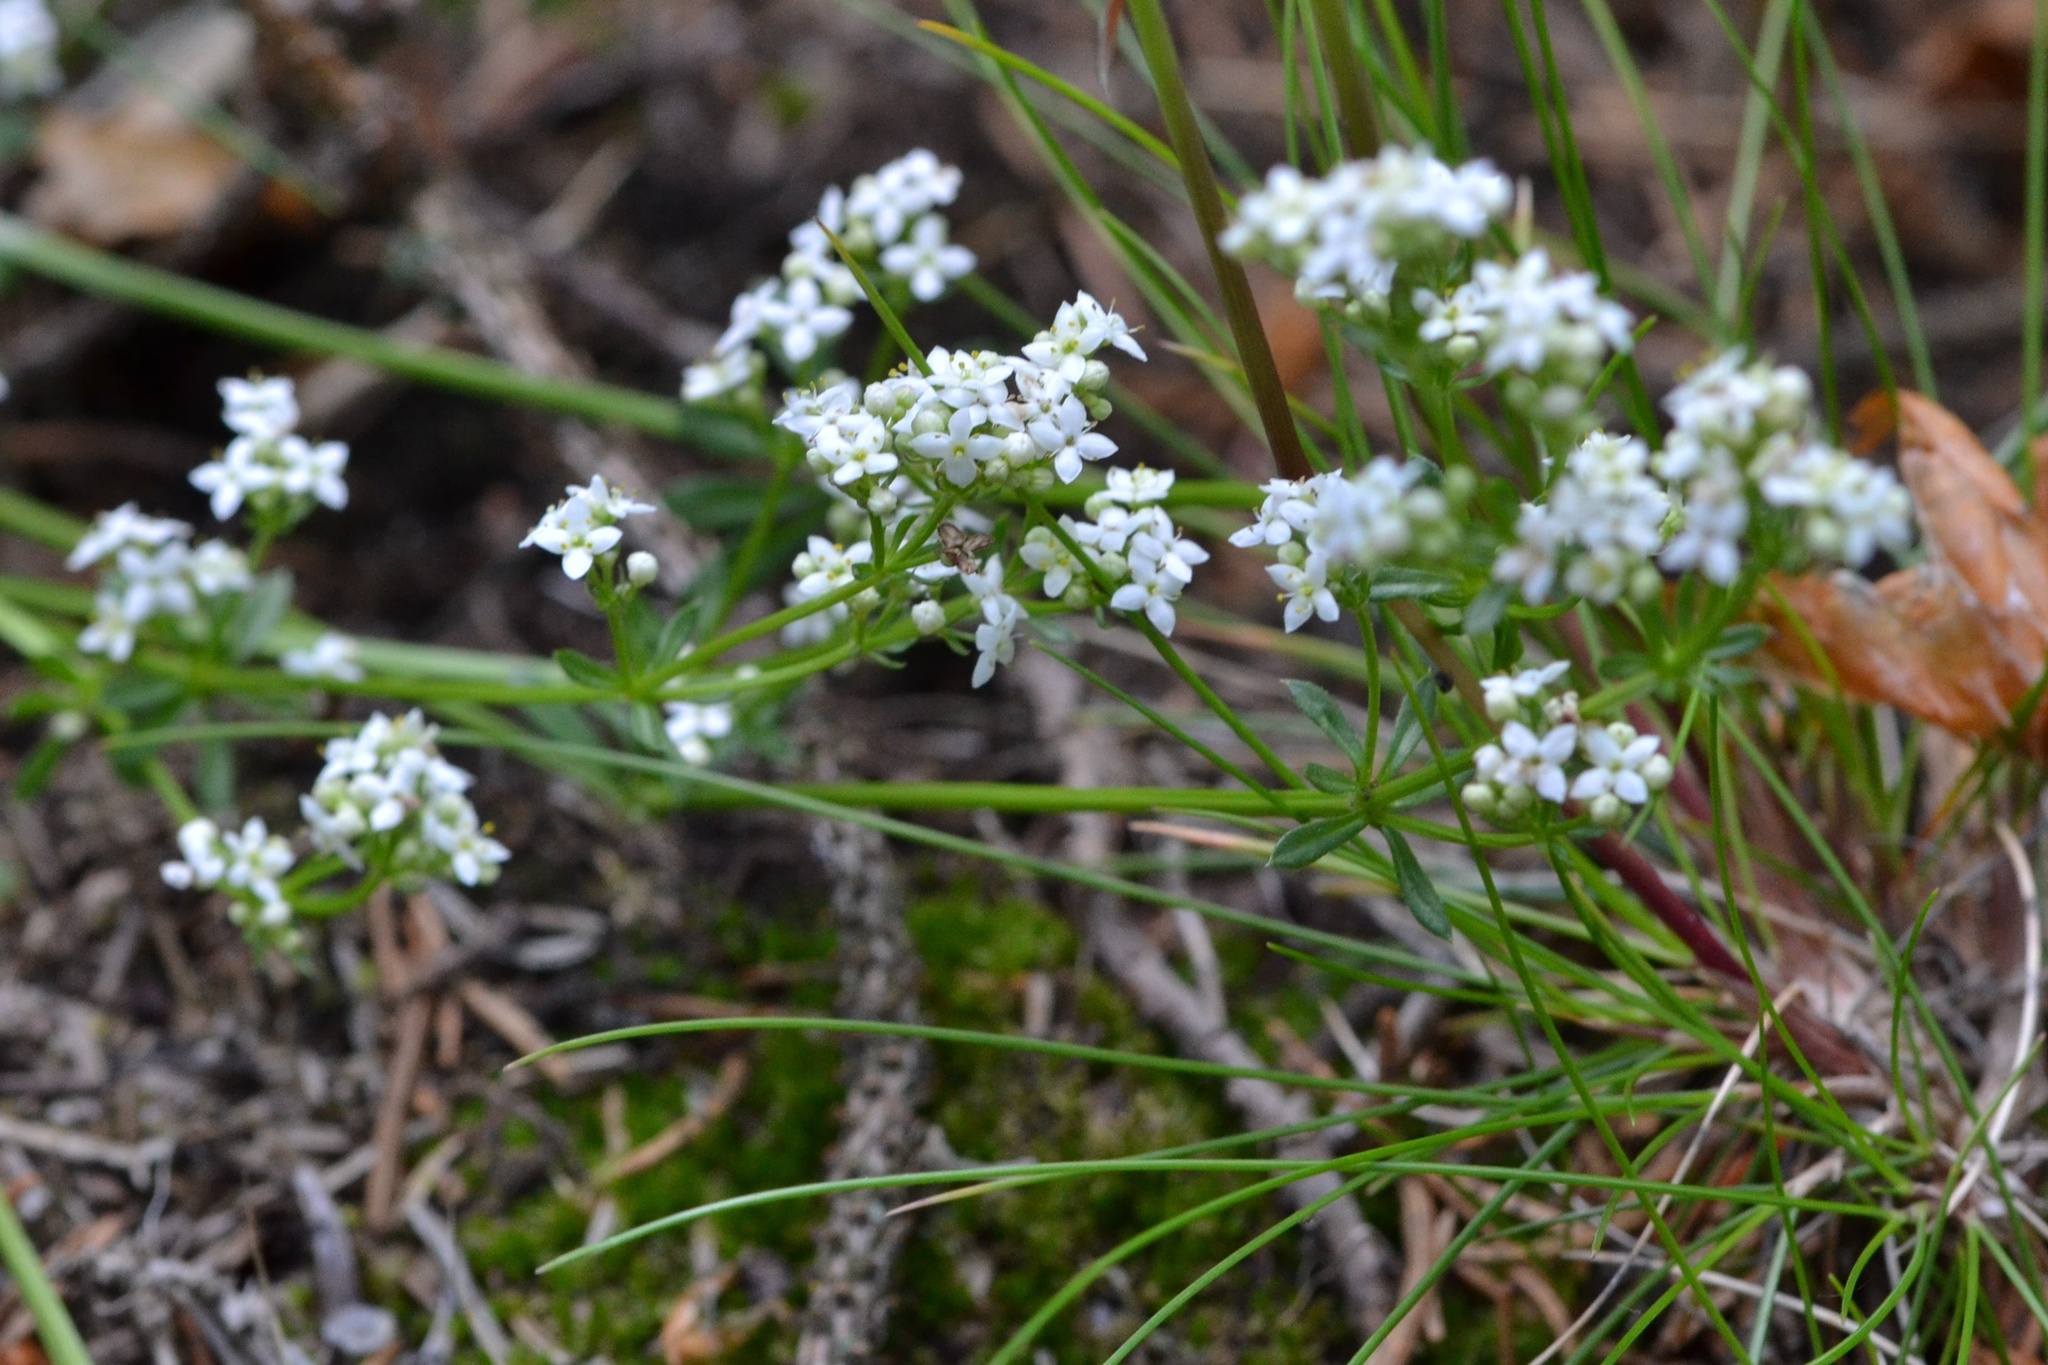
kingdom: Plantae
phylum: Tracheophyta
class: Magnoliopsida
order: Gentianales
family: Rubiaceae
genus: Galium
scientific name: Galium saxatile
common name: Heath bedstraw
